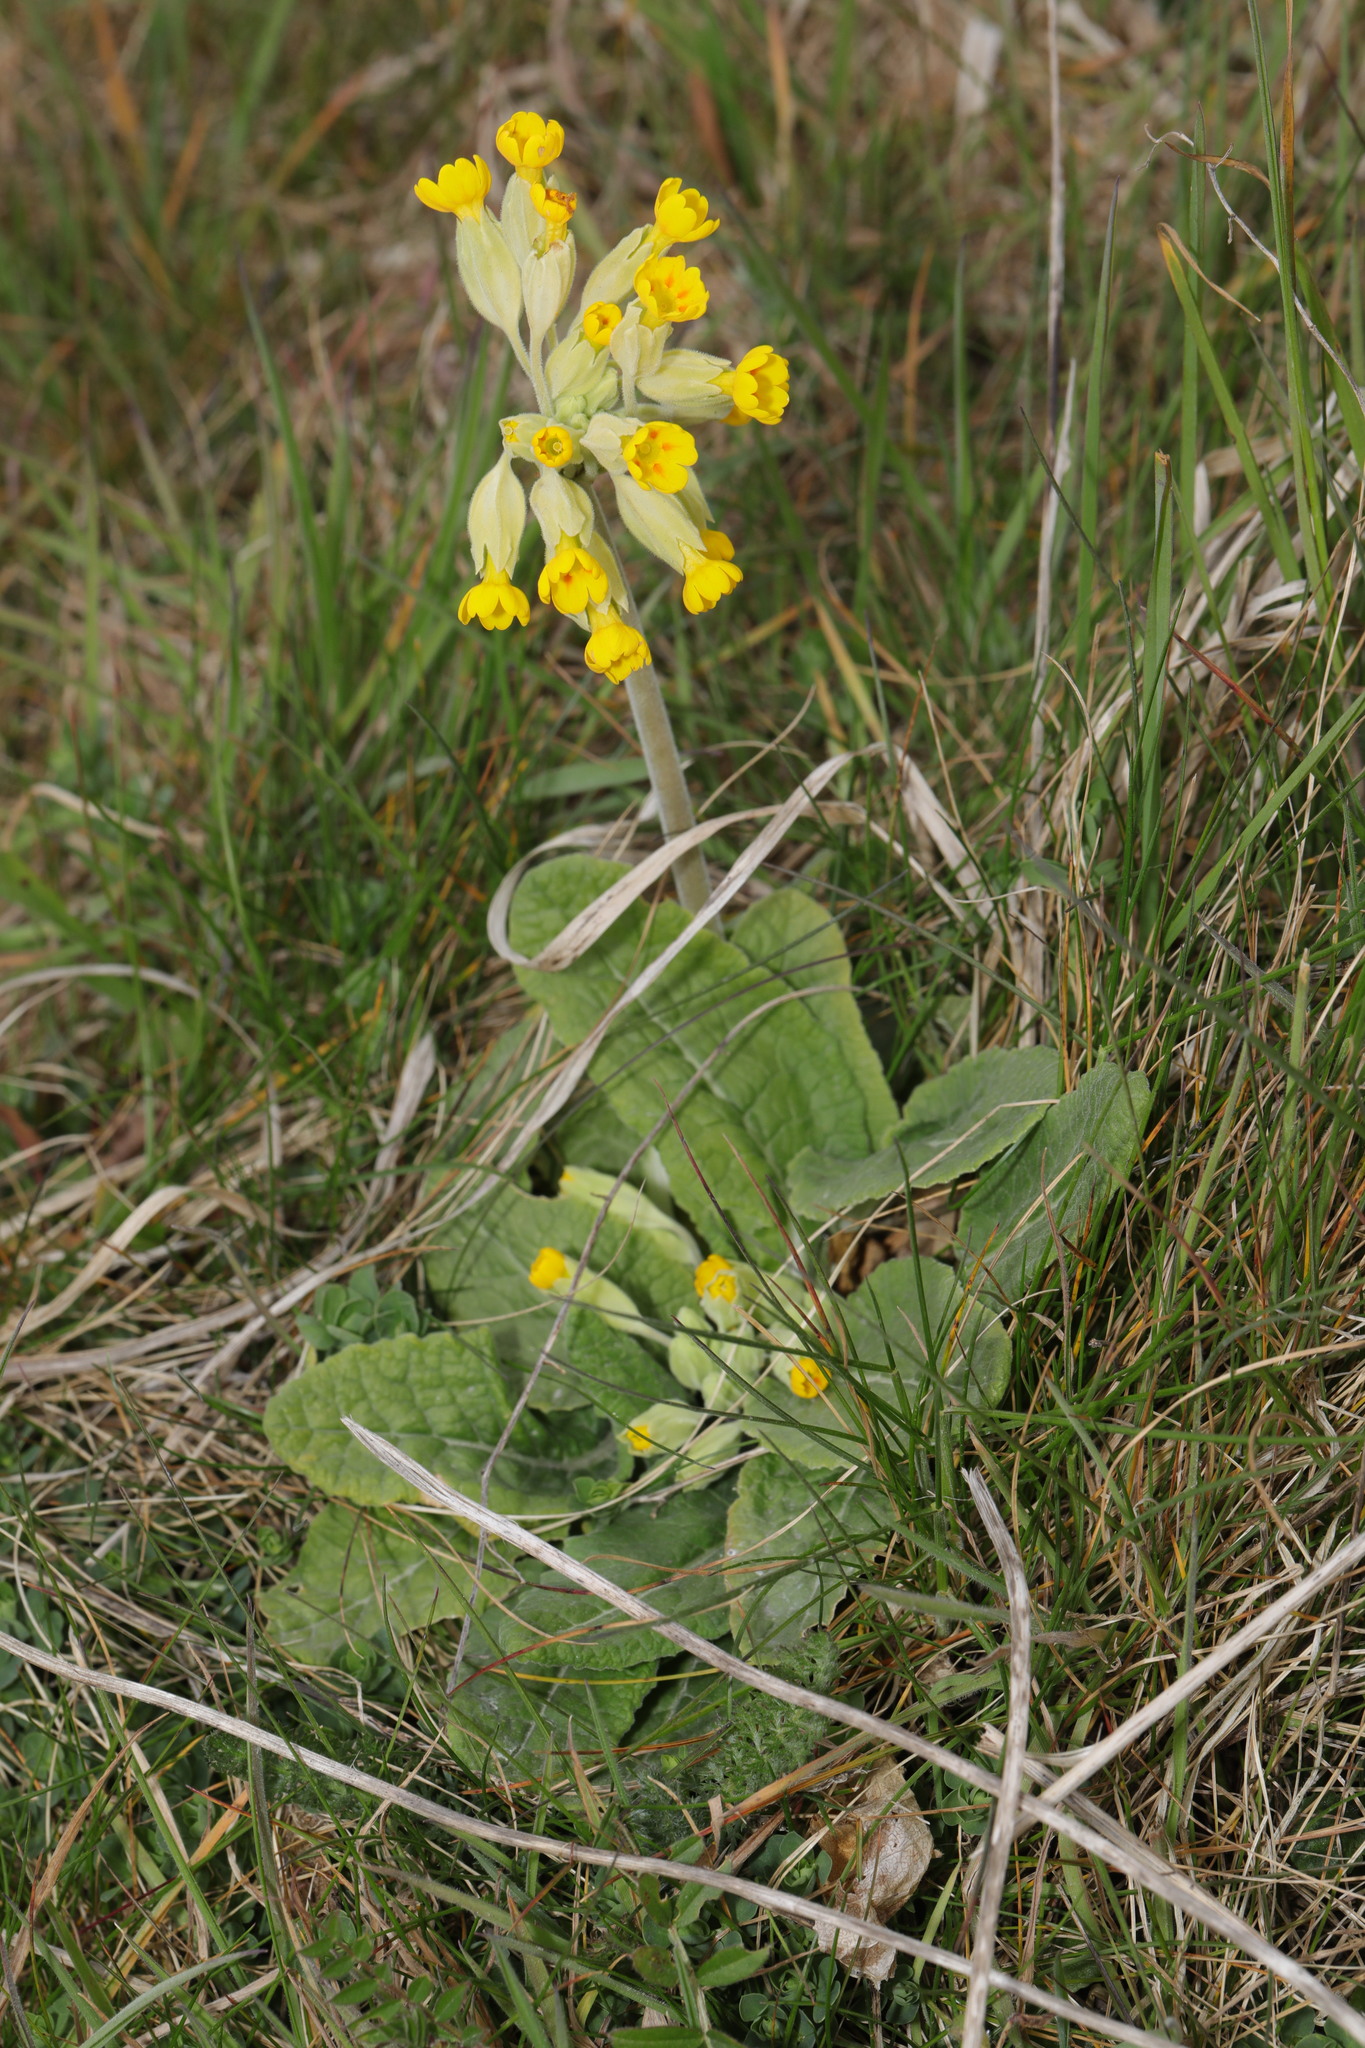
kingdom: Plantae
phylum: Tracheophyta
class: Magnoliopsida
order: Ericales
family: Primulaceae
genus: Primula
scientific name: Primula veris
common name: Cowslip
